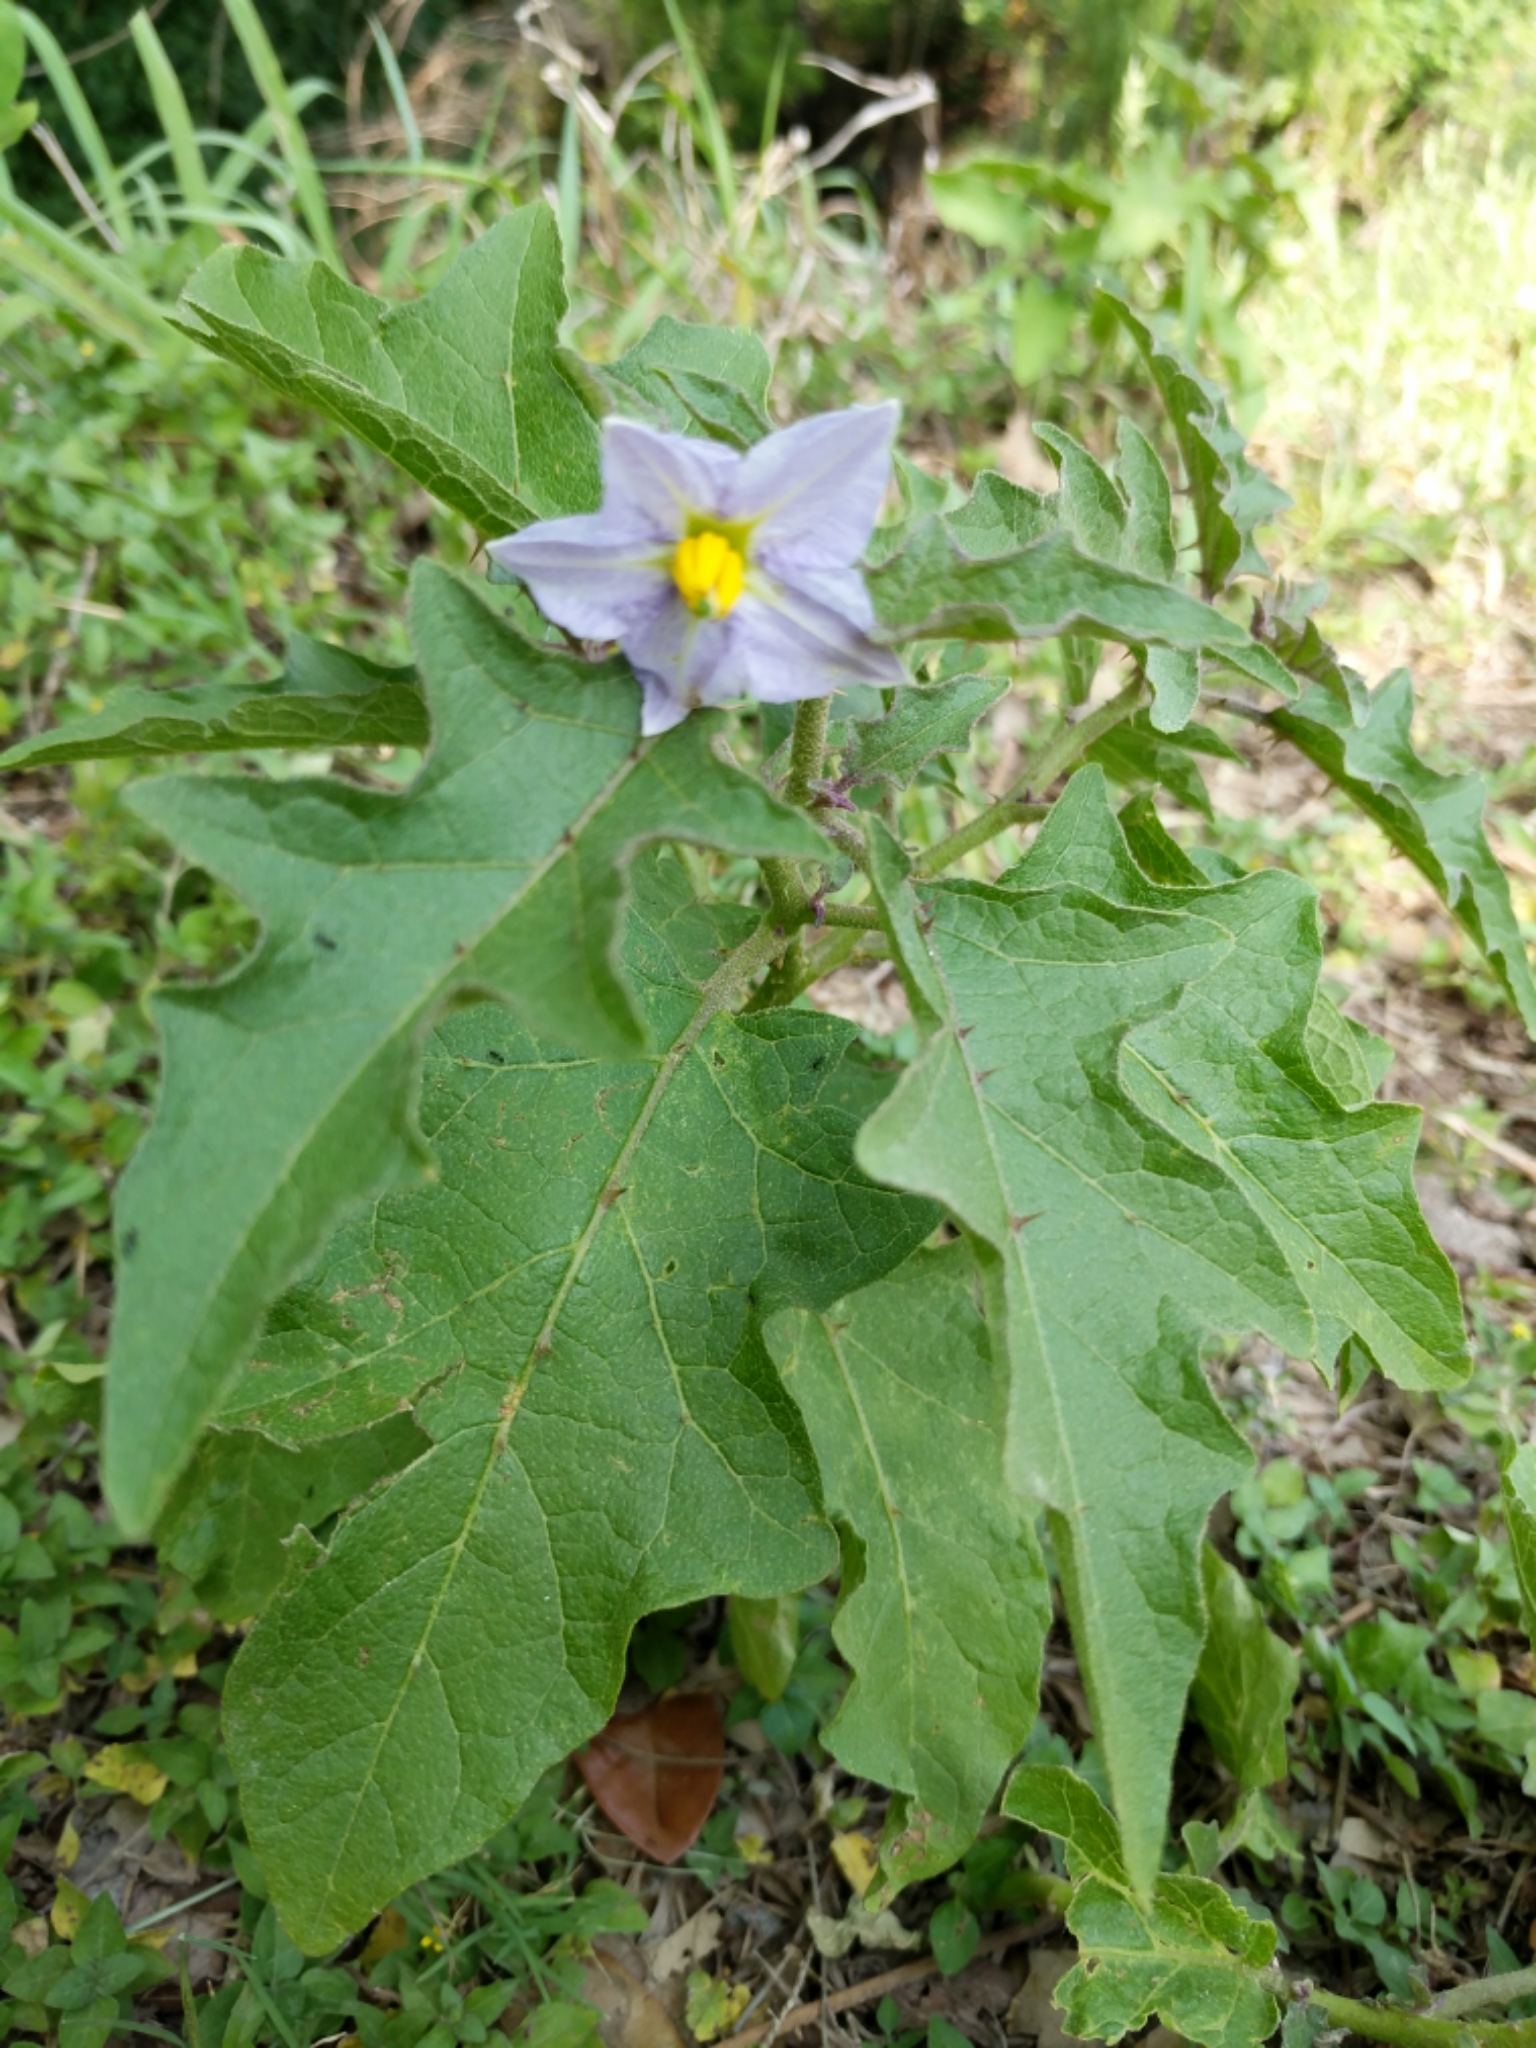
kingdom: Plantae
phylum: Tracheophyta
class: Magnoliopsida
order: Solanales
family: Solanaceae
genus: Solanum
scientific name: Solanum dimidiatum
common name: Carolina horse-nettle
